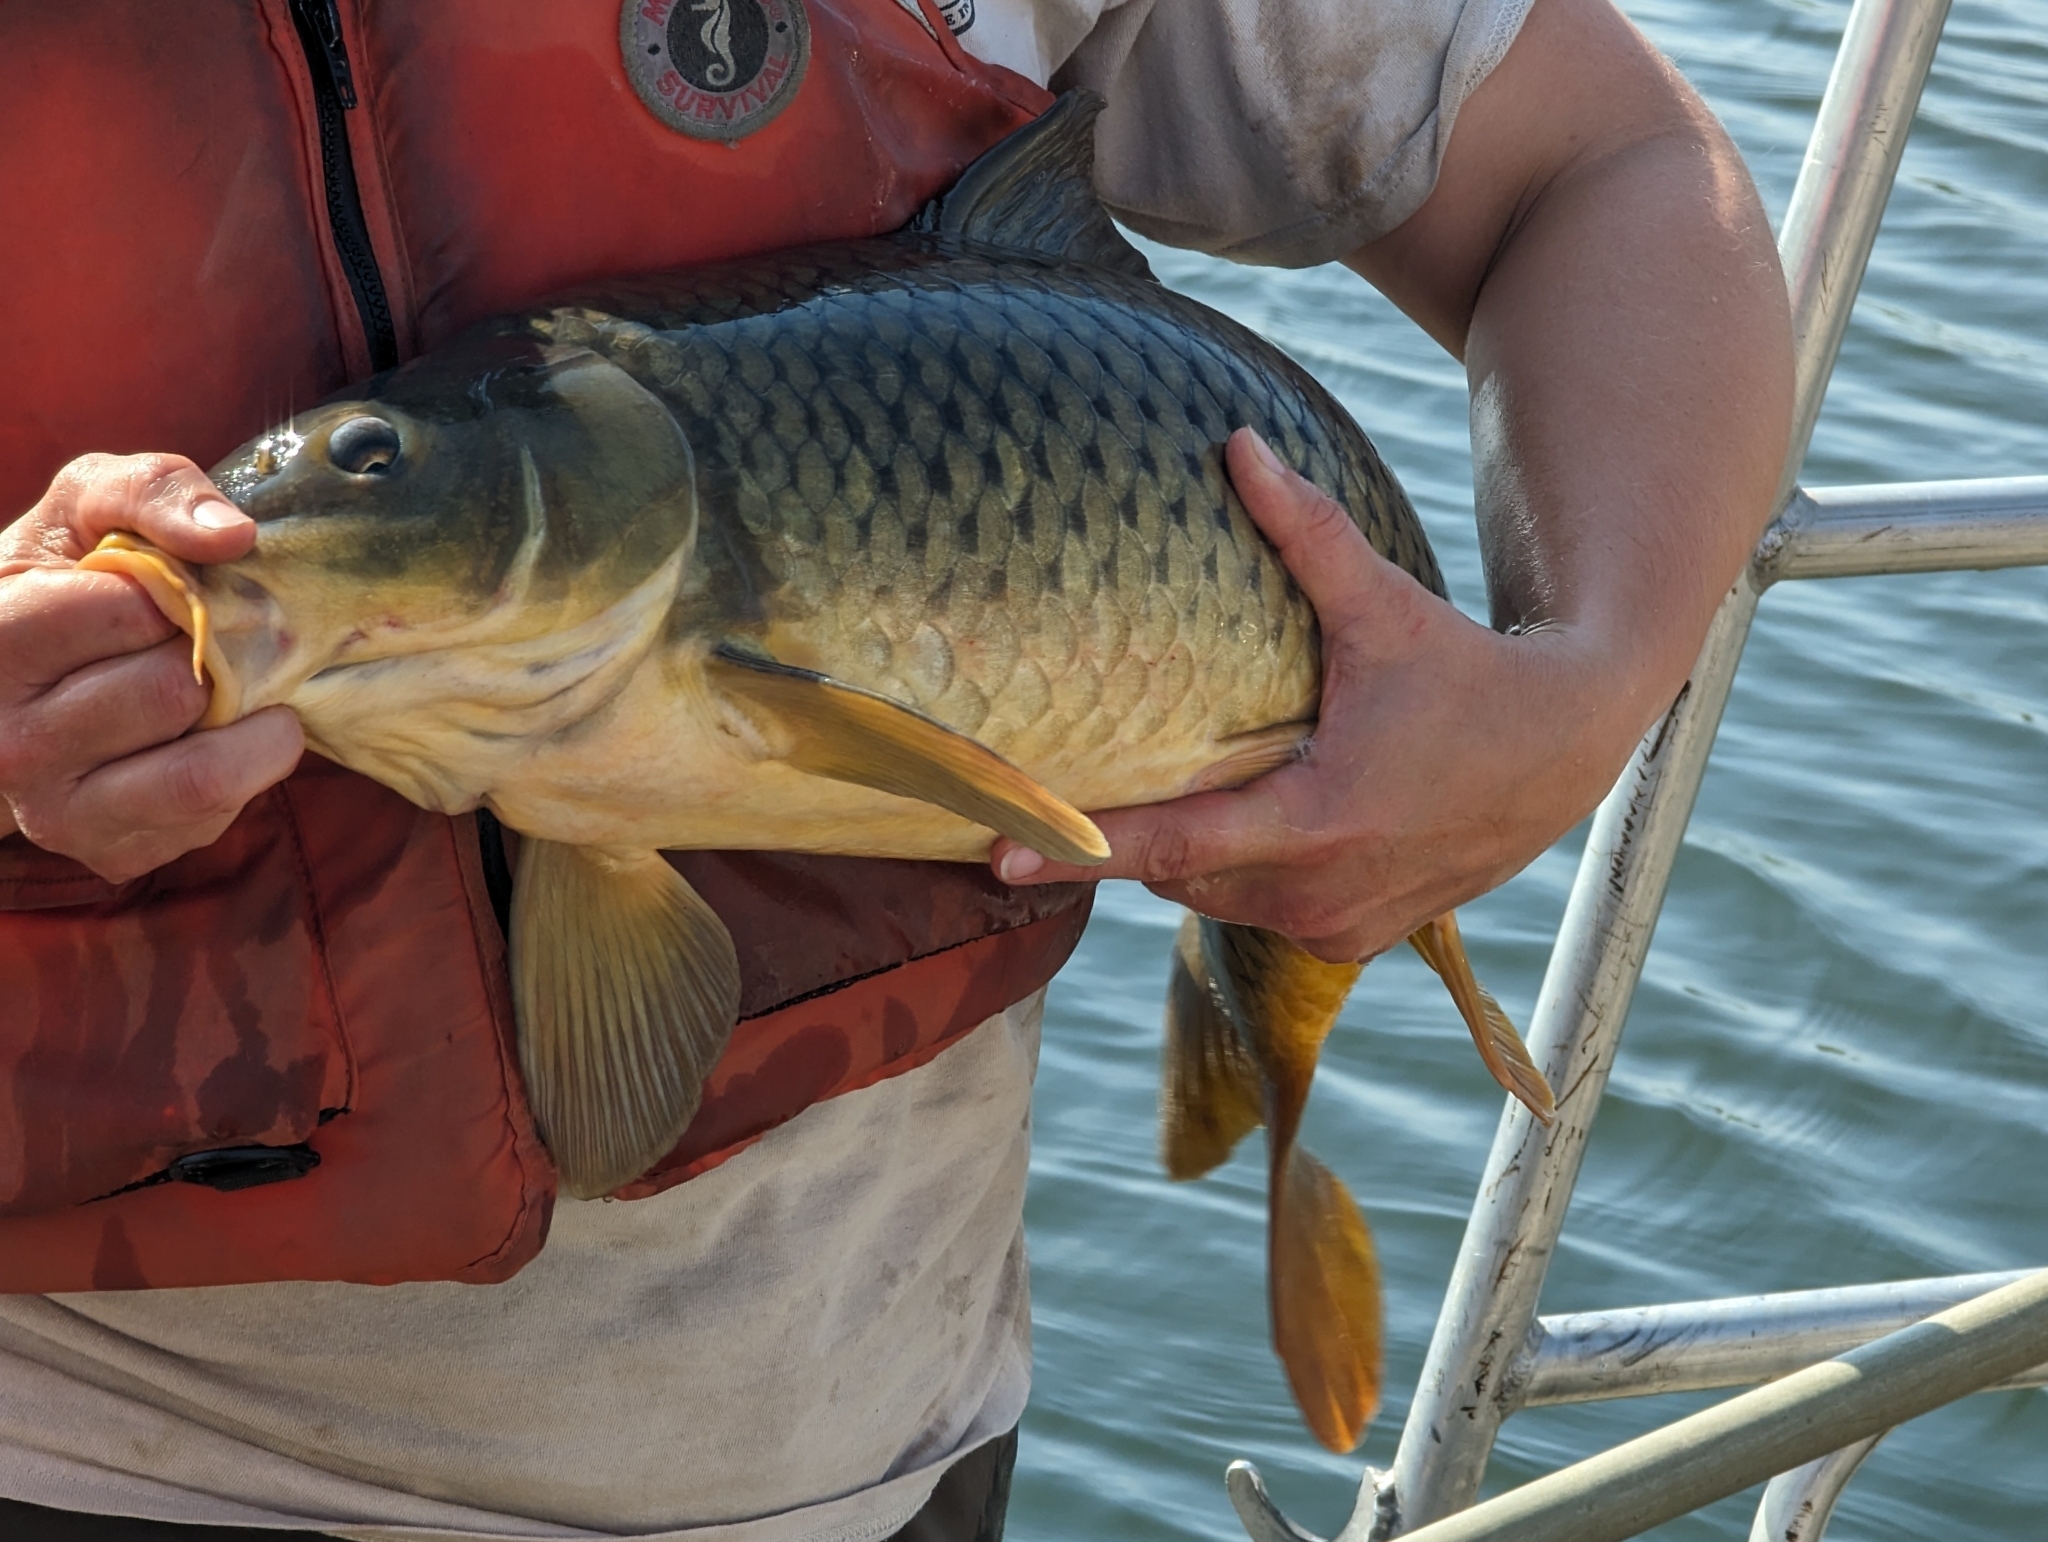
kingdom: Animalia
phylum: Chordata
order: Cypriniformes
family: Cyprinidae
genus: Cyprinus
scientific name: Cyprinus carpio
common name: Common carp
